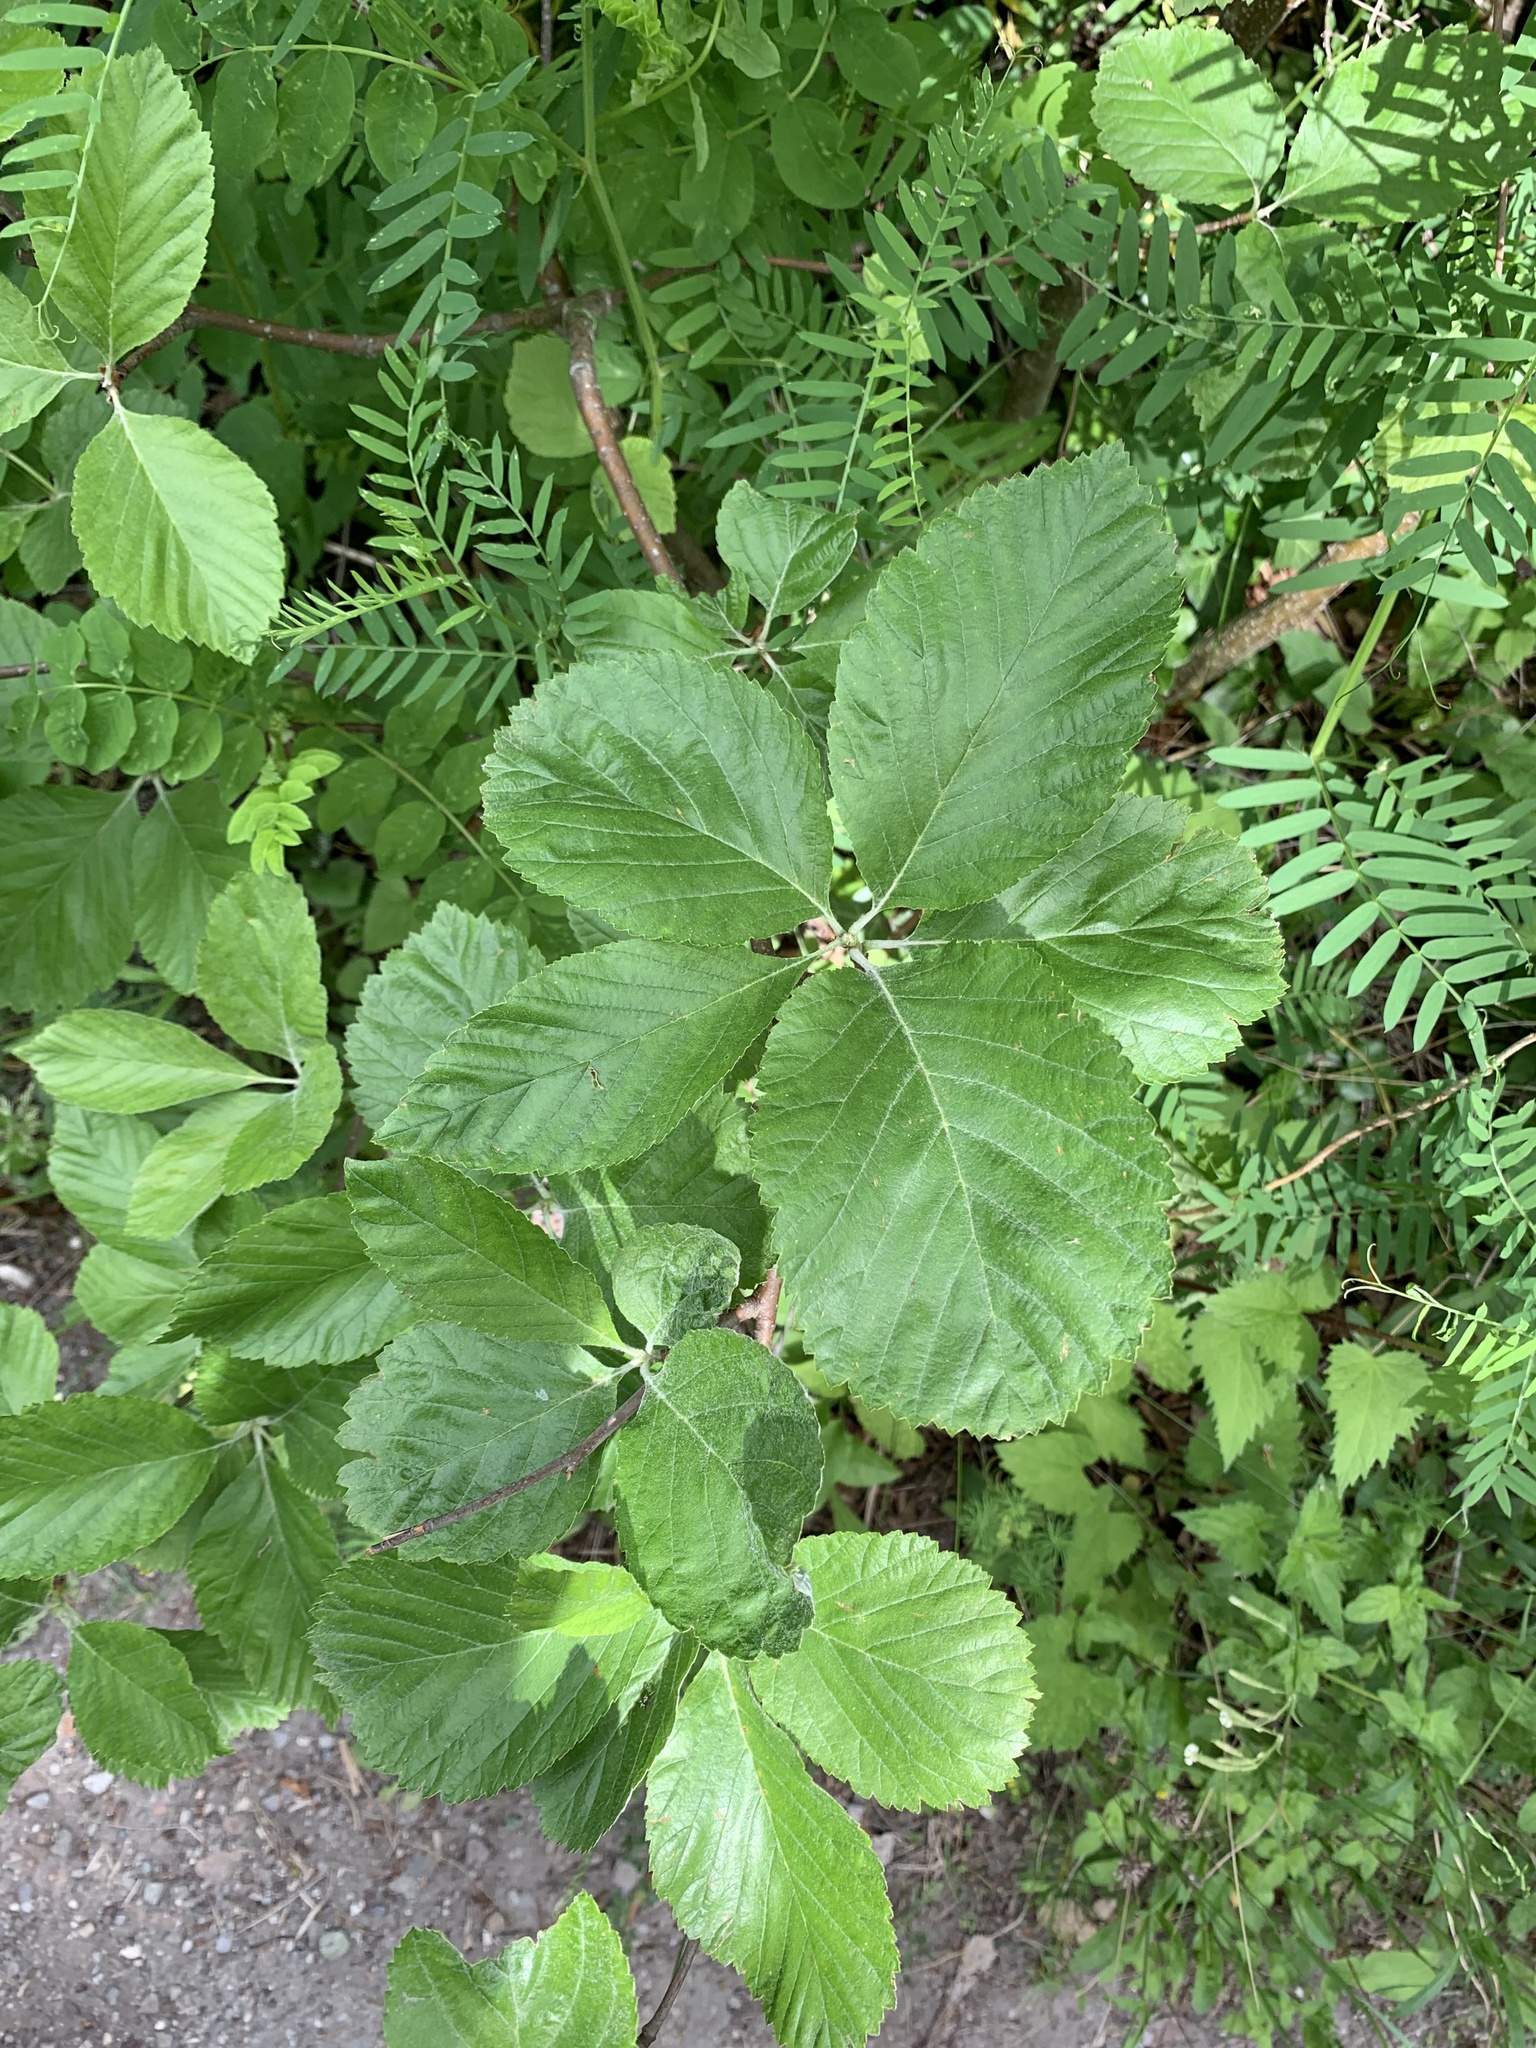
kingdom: Plantae
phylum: Tracheophyta
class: Magnoliopsida
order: Rosales
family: Rosaceae
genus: Aria
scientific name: Aria edulis
